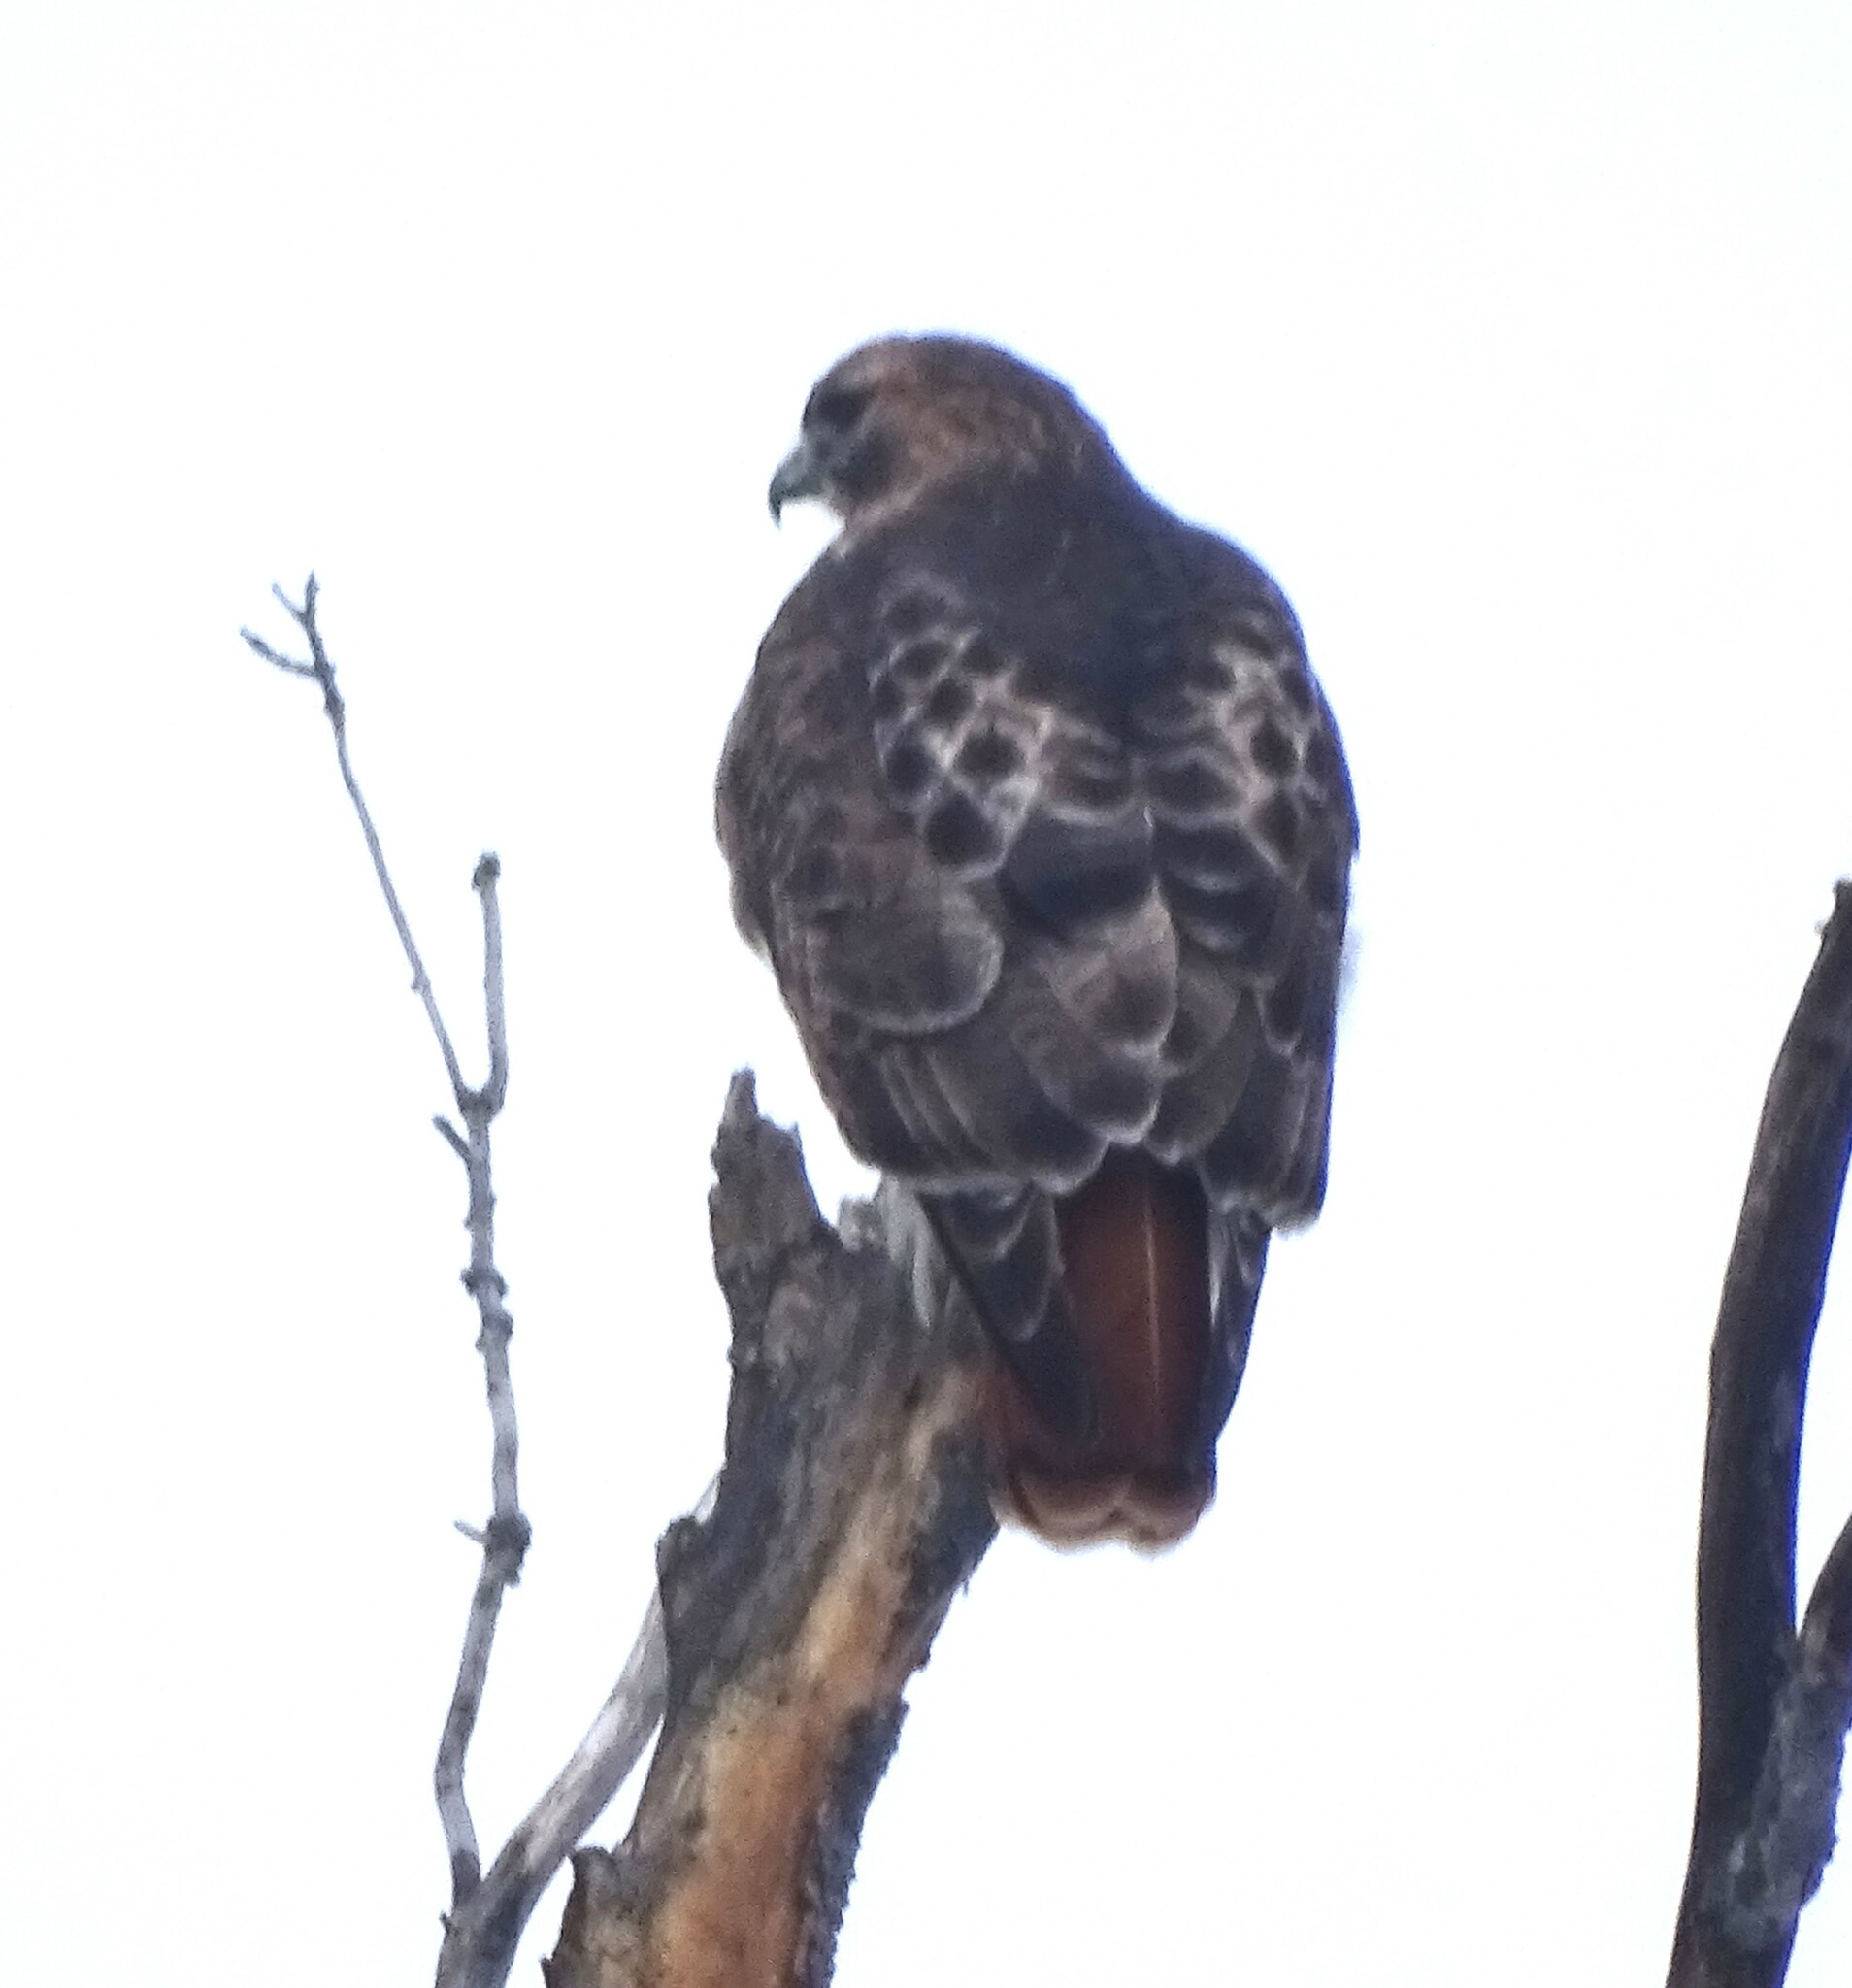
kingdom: Animalia
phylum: Chordata
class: Aves
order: Accipitriformes
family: Accipitridae
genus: Buteo
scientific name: Buteo jamaicensis
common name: Red-tailed hawk
